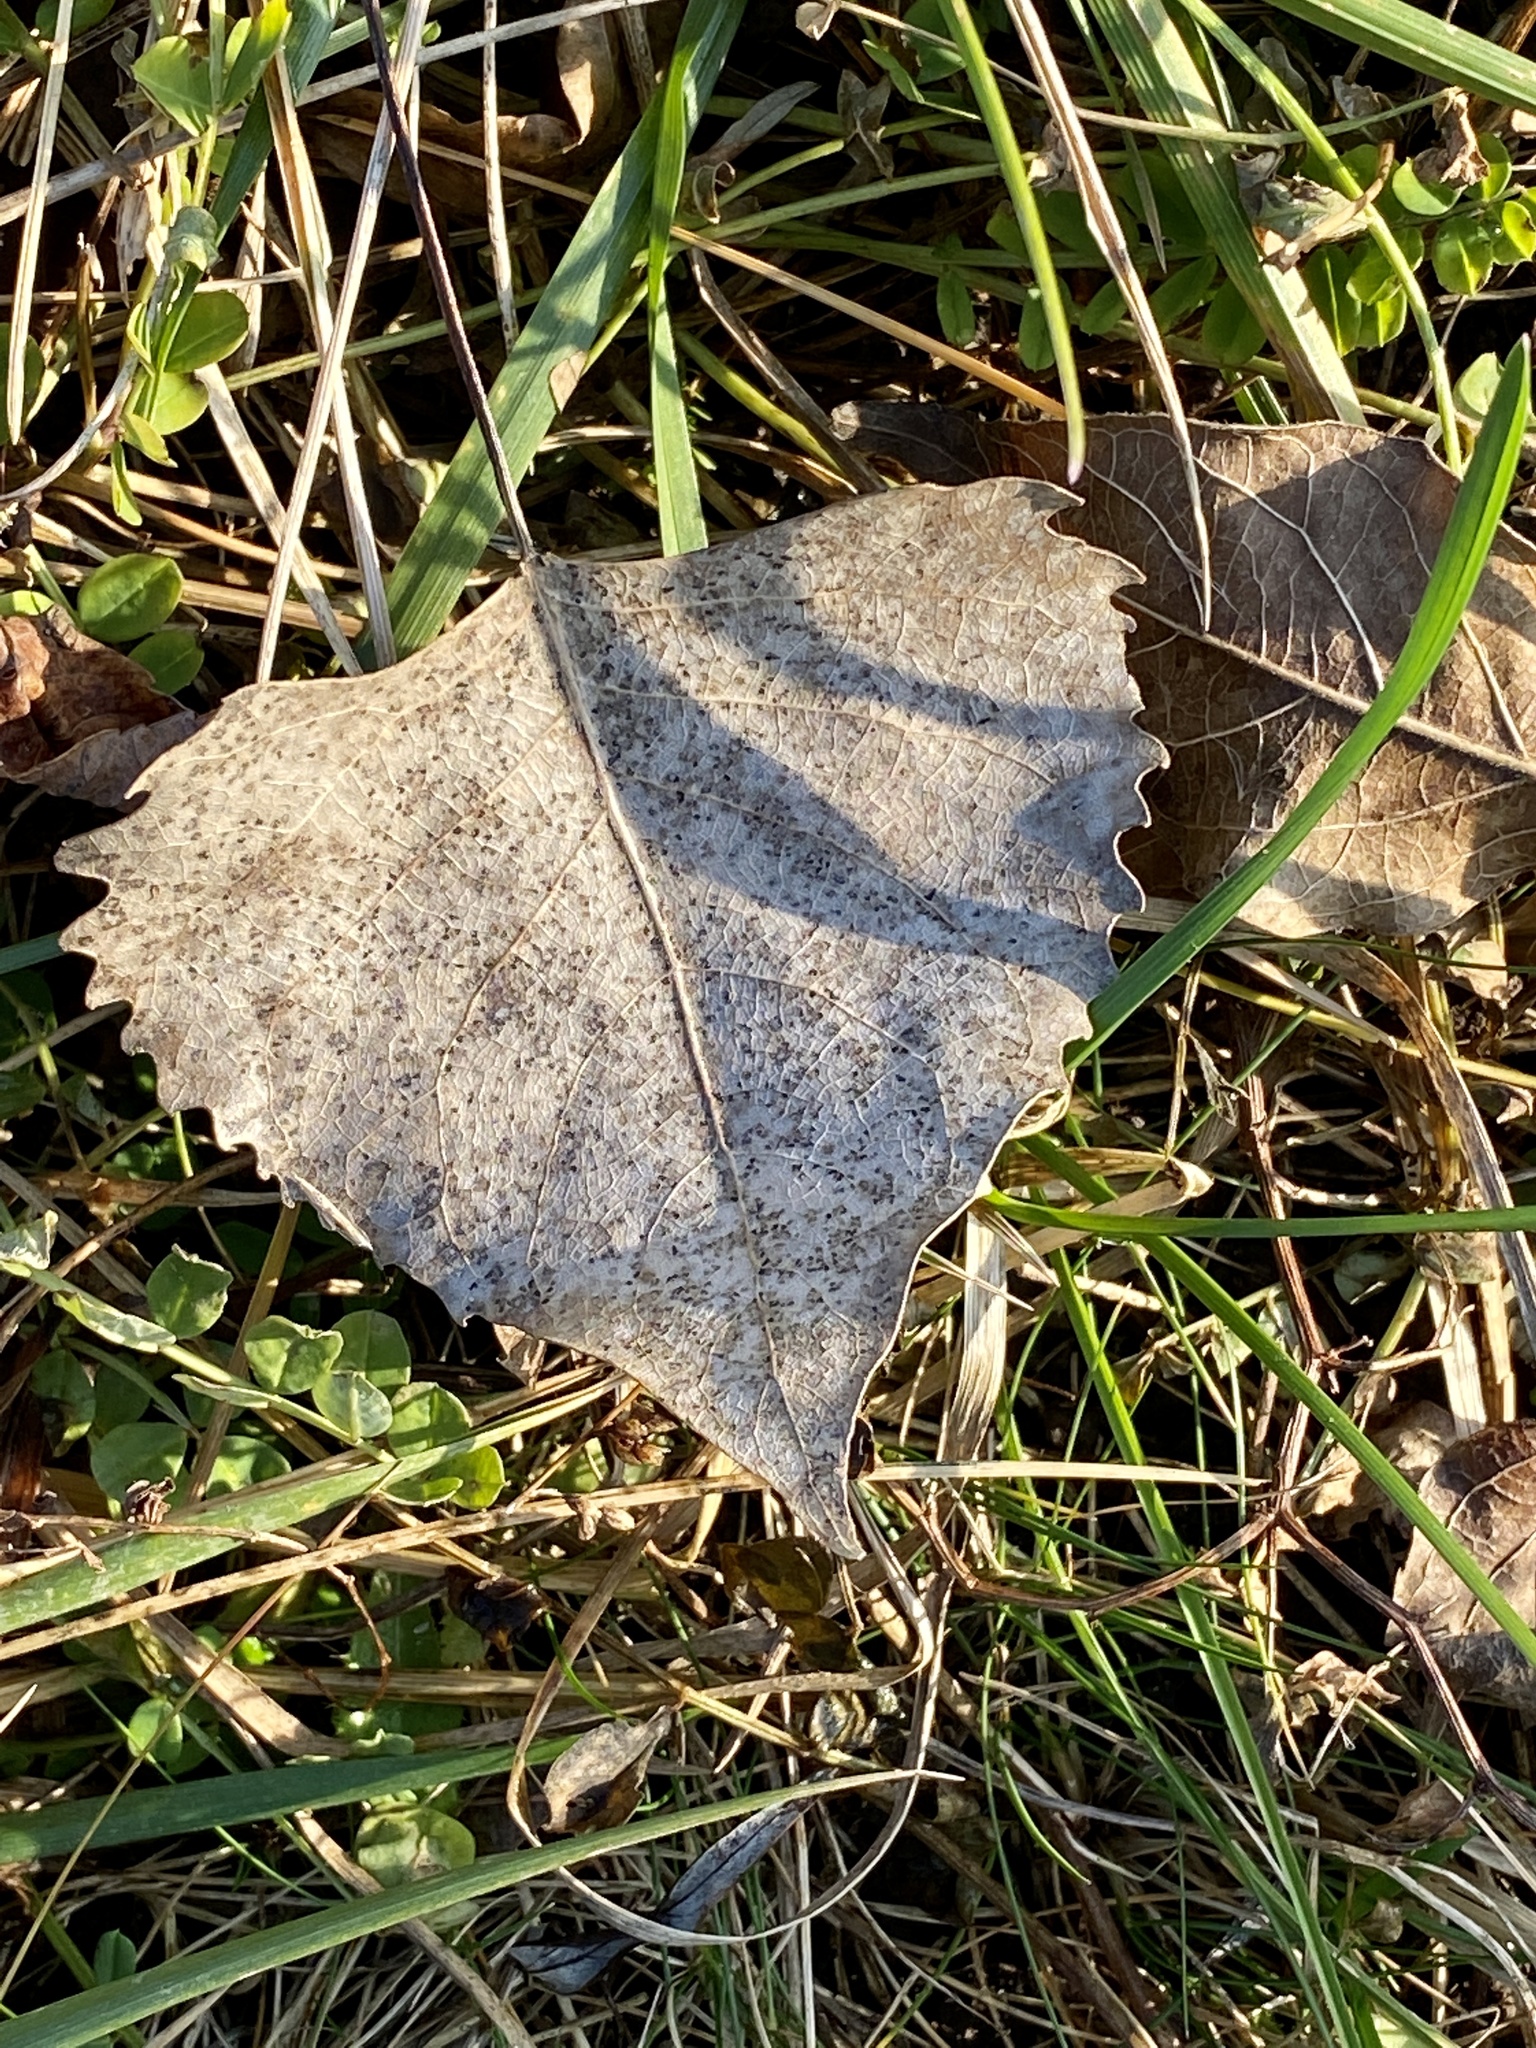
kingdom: Plantae
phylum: Tracheophyta
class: Magnoliopsida
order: Malpighiales
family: Salicaceae
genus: Populus
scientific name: Populus deltoides
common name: Eastern cottonwood
